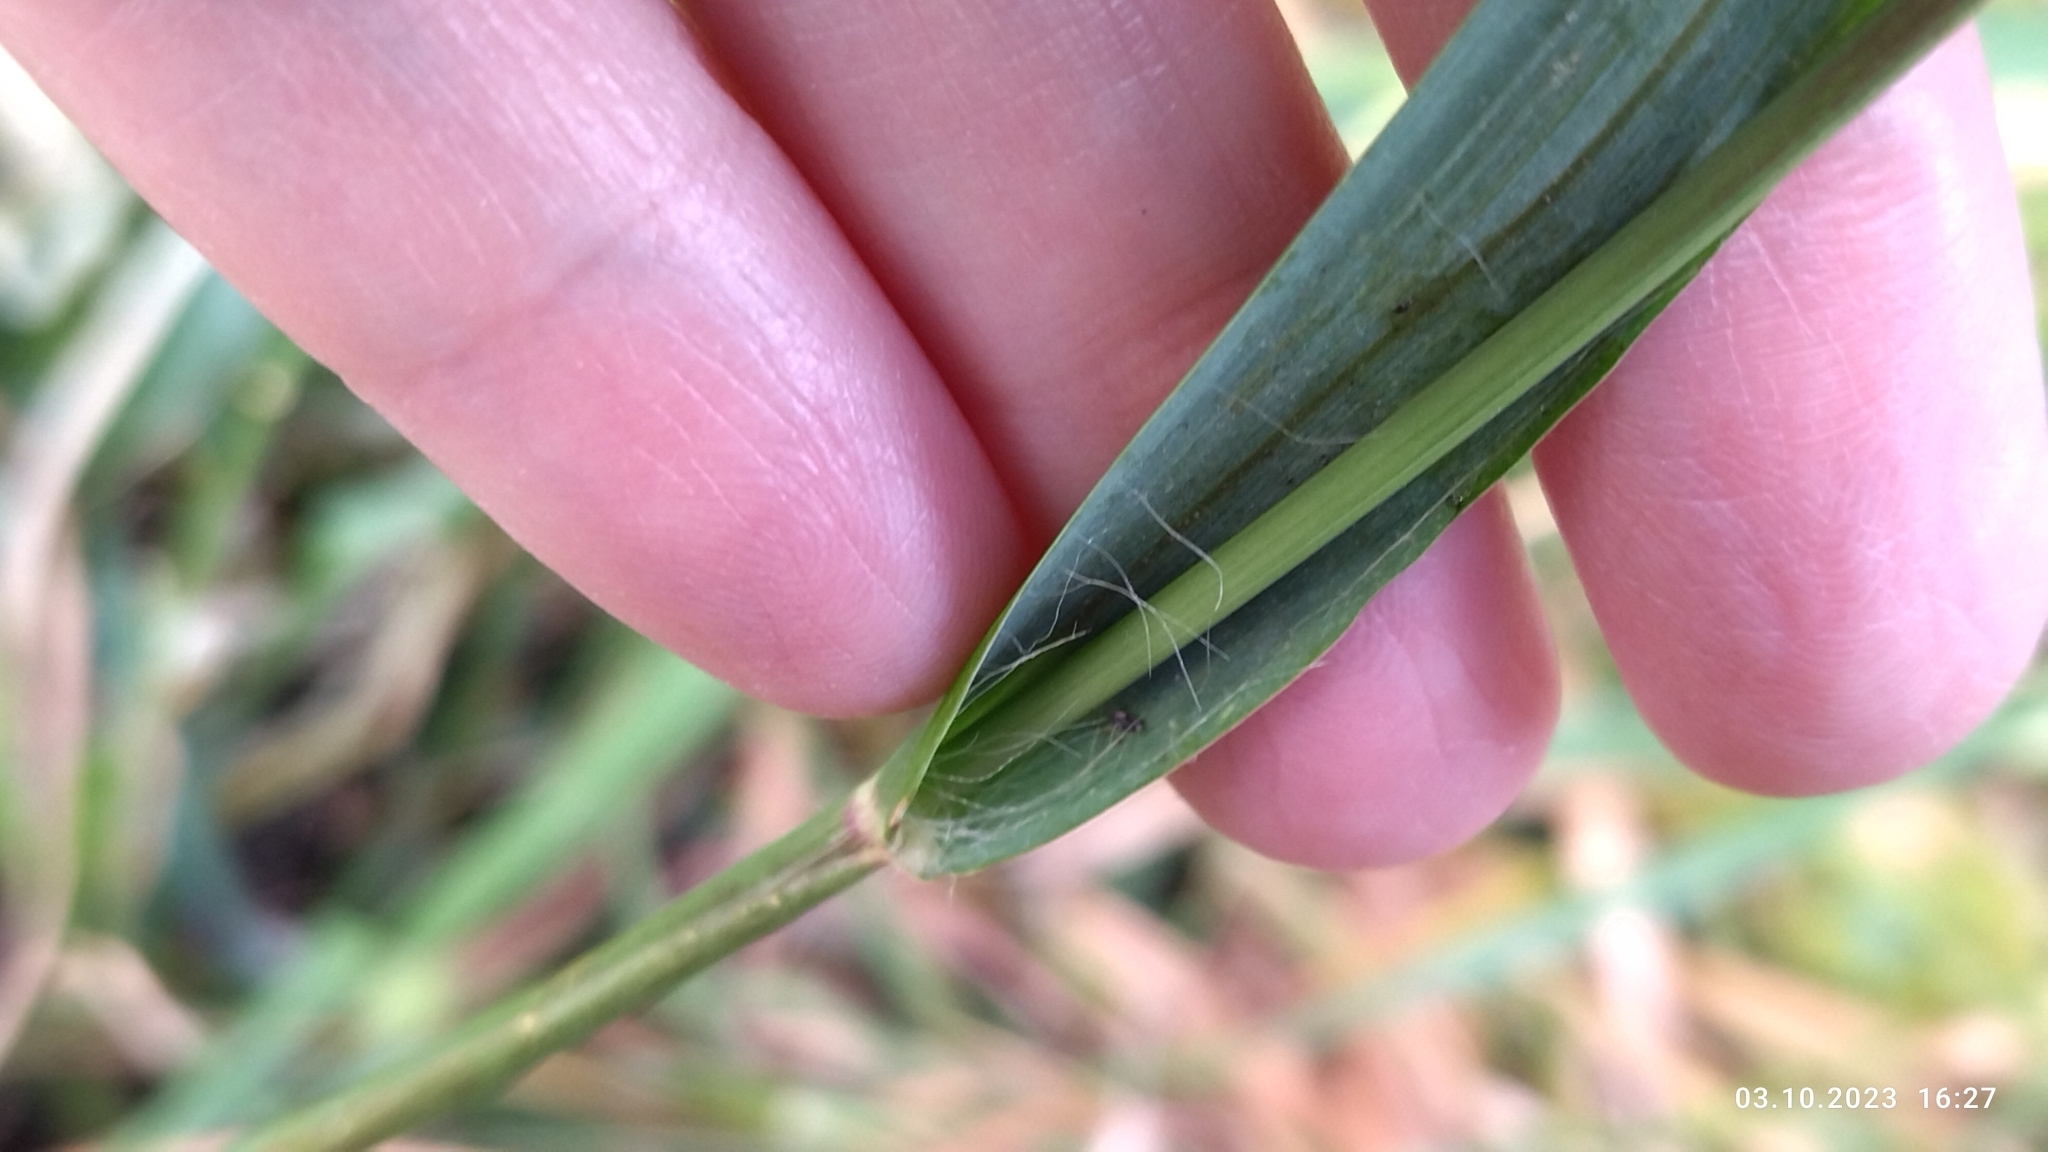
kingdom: Plantae
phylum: Tracheophyta
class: Liliopsida
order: Poales
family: Poaceae
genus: Setaria
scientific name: Setaria pumila
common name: Yellow bristle-grass
